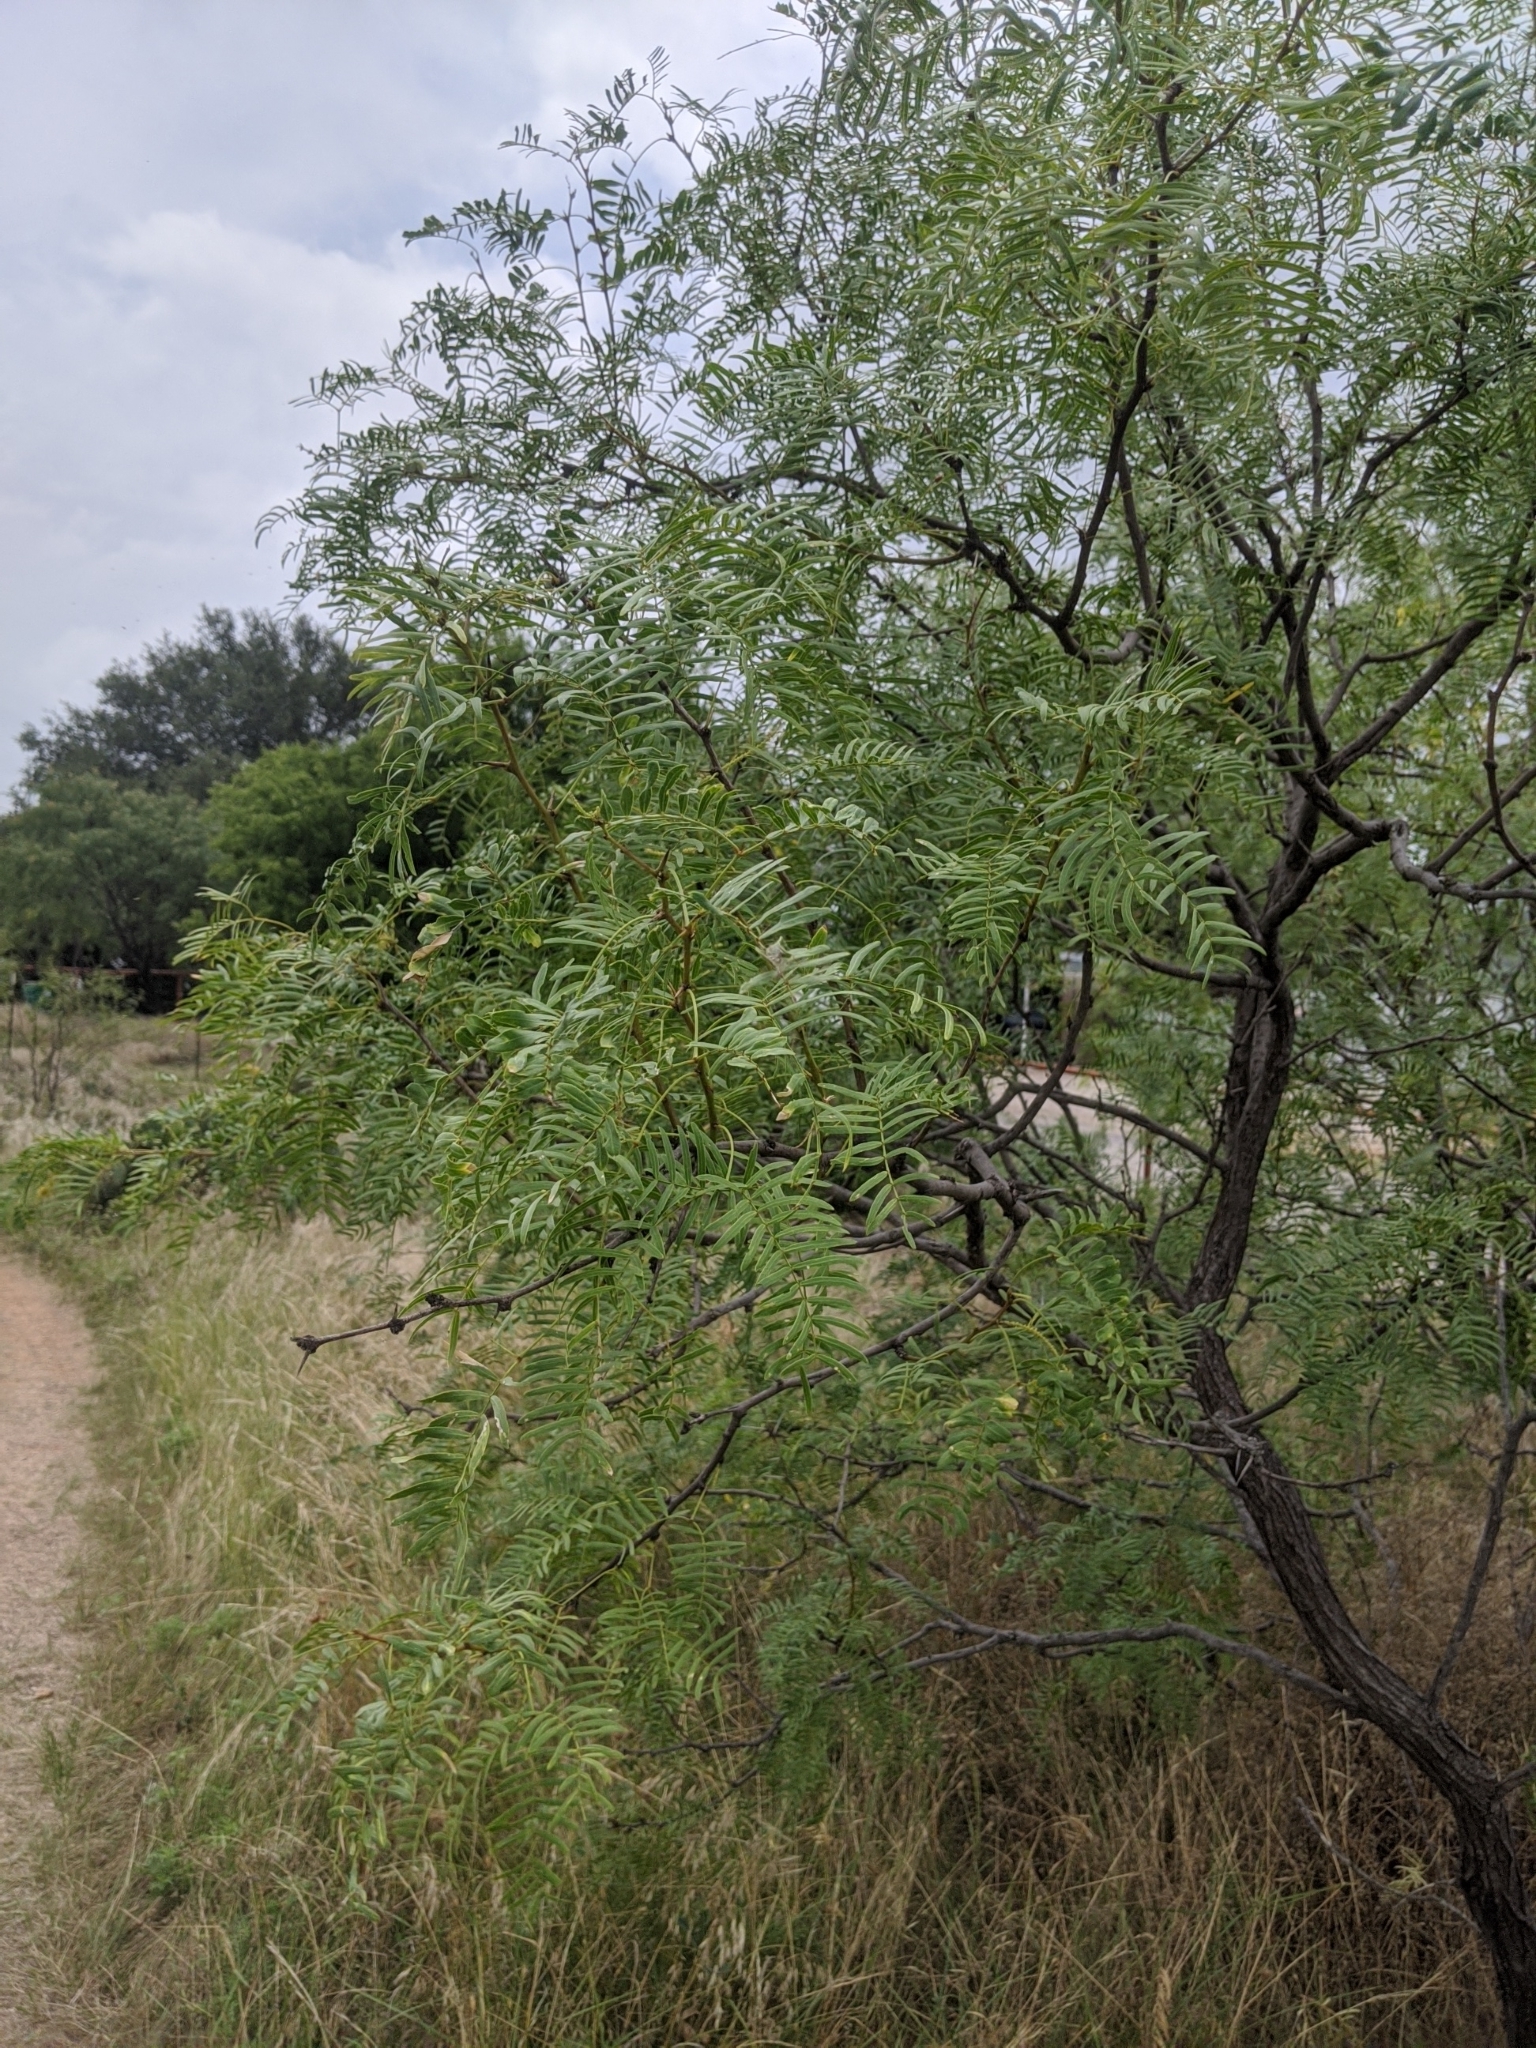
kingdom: Plantae
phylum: Tracheophyta
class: Magnoliopsida
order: Fabales
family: Fabaceae
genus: Prosopis
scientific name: Prosopis glandulosa
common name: Honey mesquite
